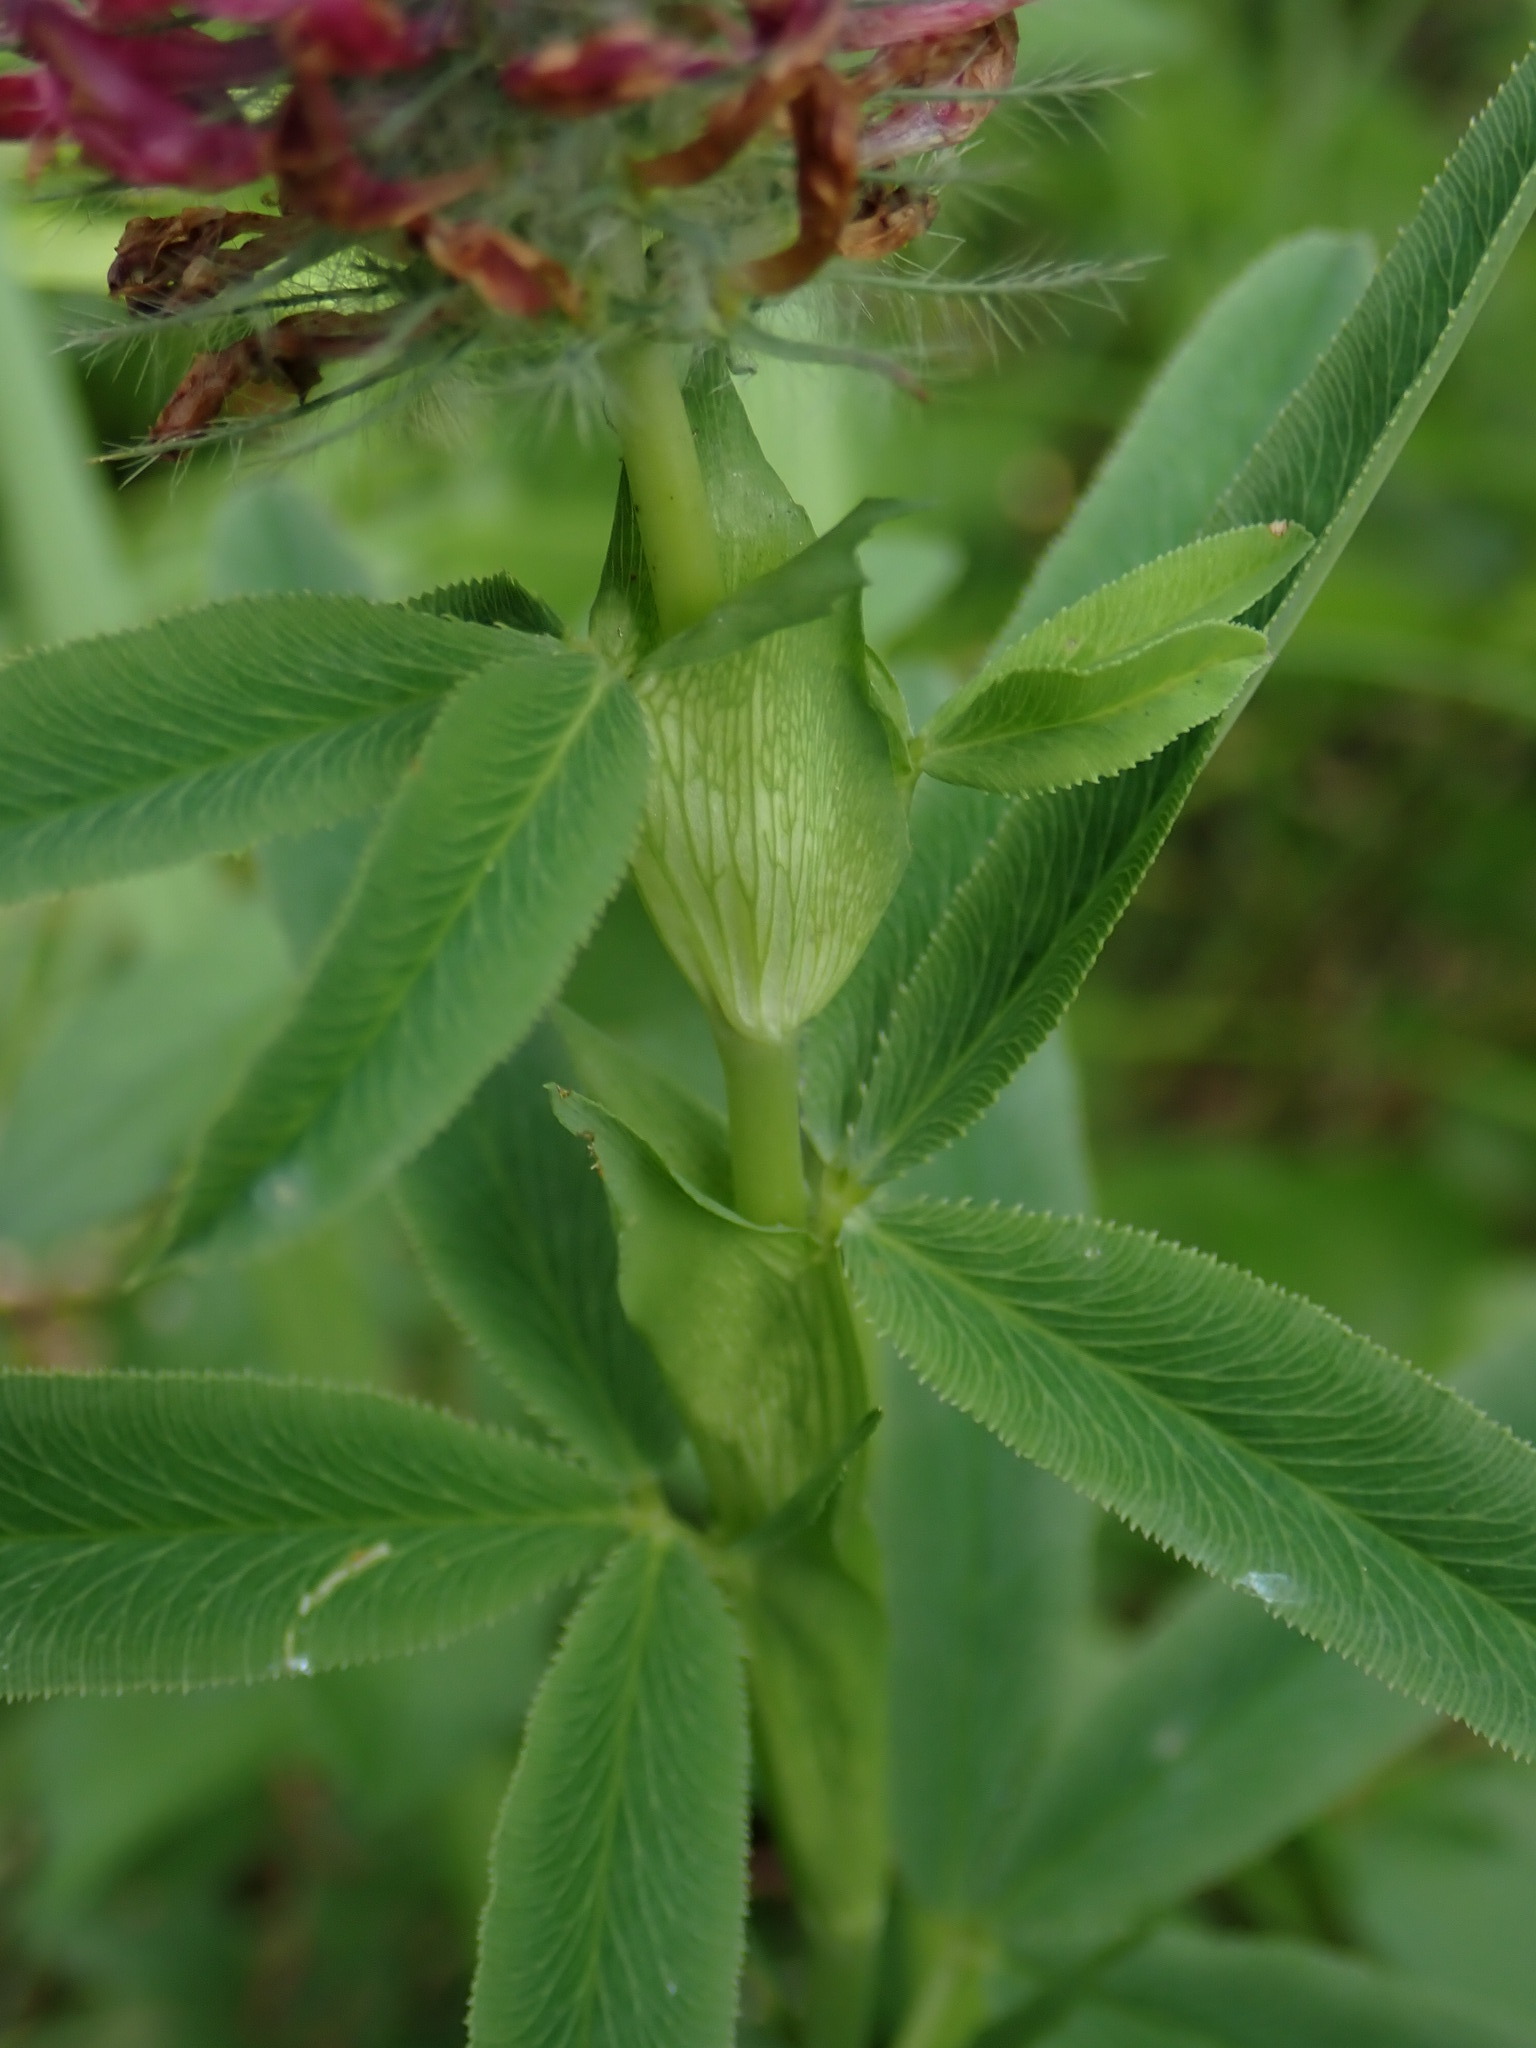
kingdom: Plantae
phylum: Tracheophyta
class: Magnoliopsida
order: Fabales
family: Fabaceae
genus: Trifolium
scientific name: Trifolium rubens
